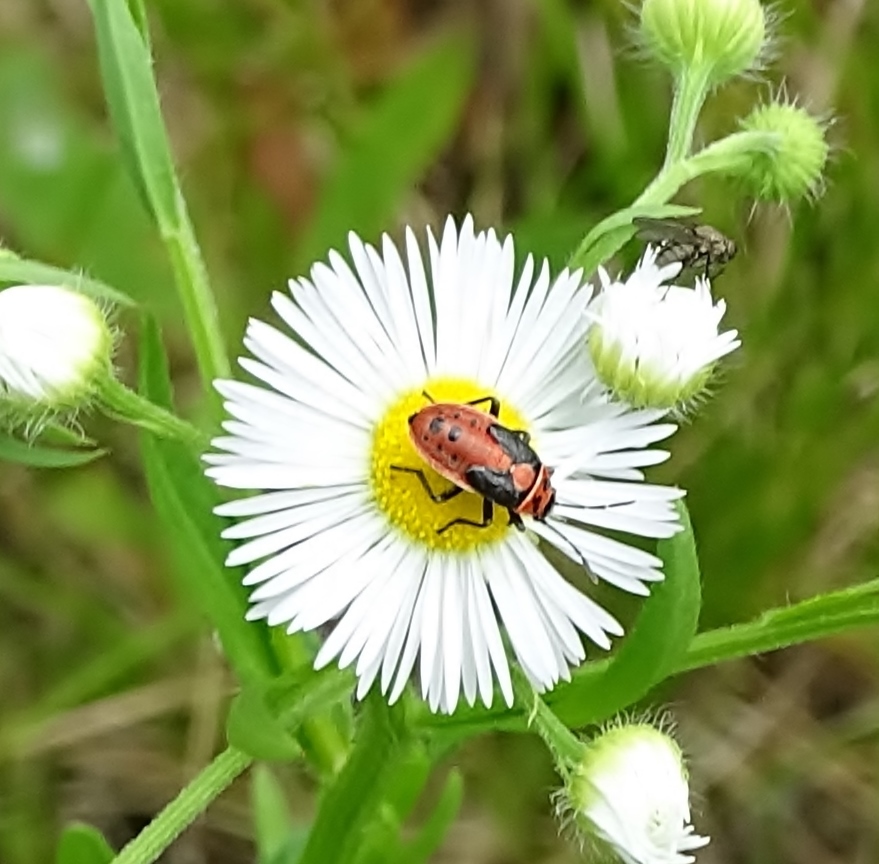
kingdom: Animalia
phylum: Arthropoda
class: Insecta
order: Hemiptera
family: Lygaeidae
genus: Lygaeus
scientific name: Lygaeus kalmii
